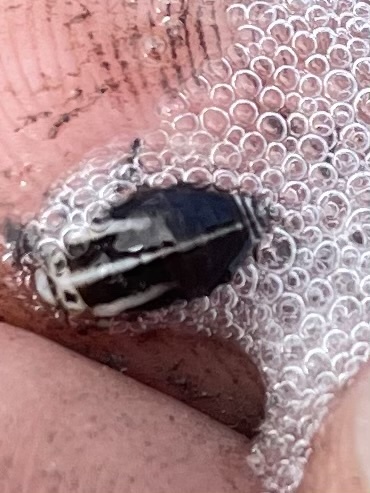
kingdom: Animalia
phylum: Arthropoda
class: Insecta
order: Hemiptera
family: Aphrophoridae
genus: Lepyronia
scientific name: Lepyronia gibbosa
